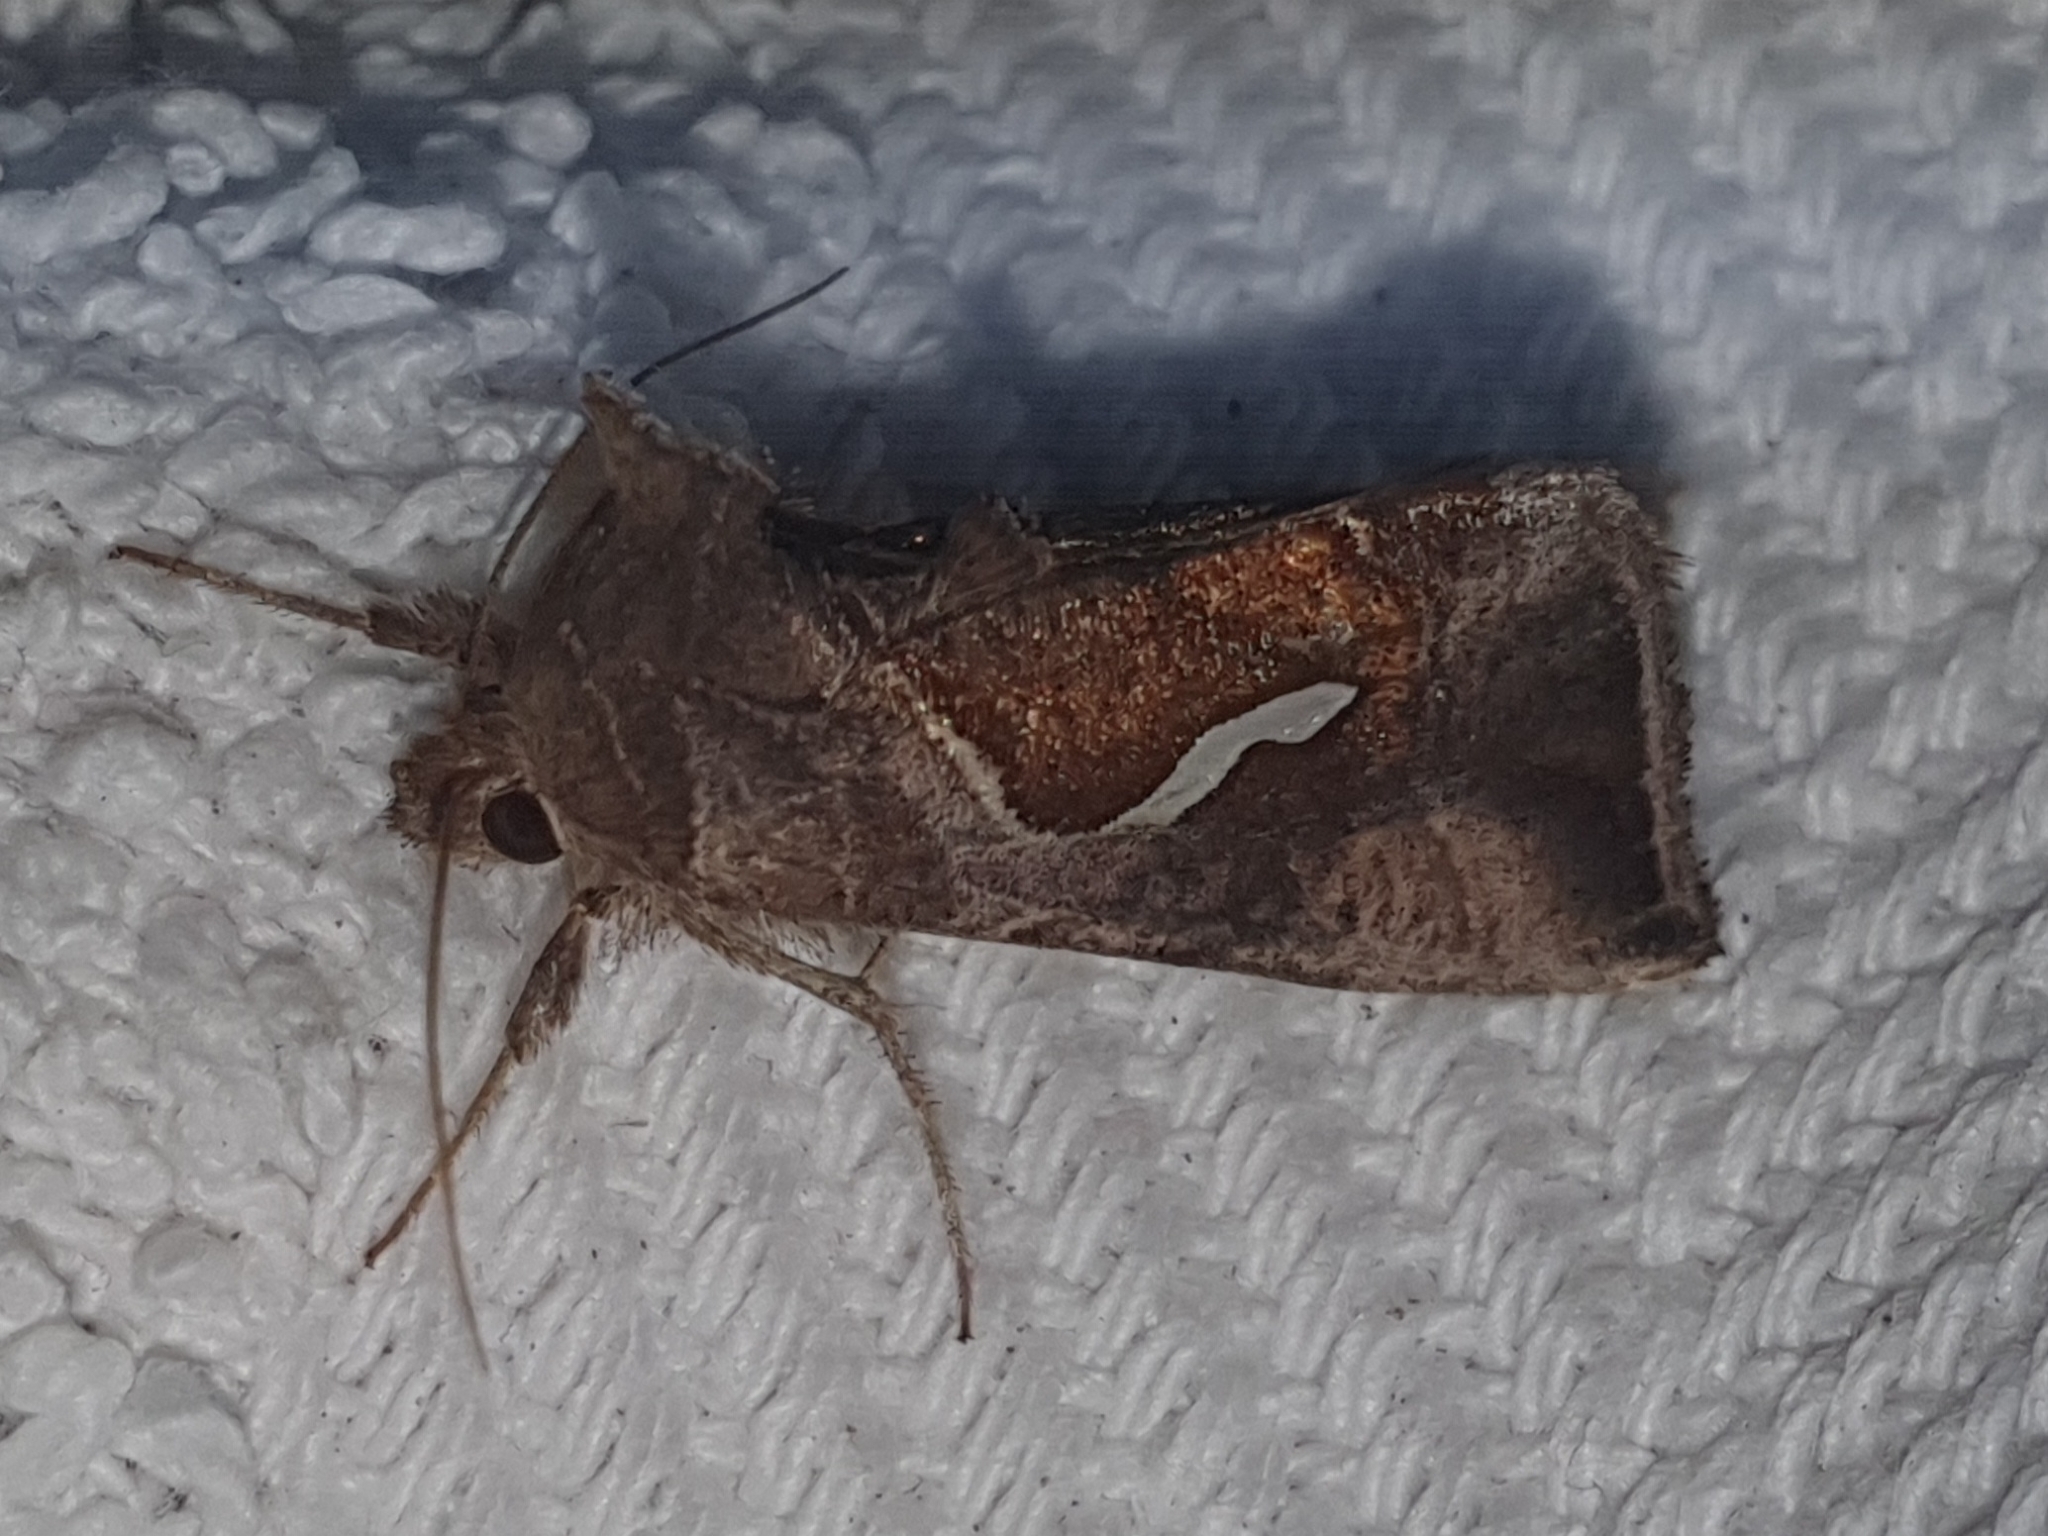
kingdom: Animalia
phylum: Arthropoda
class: Insecta
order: Lepidoptera
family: Noctuidae
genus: Macdunnoughia
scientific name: Macdunnoughia confusa
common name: Dewick's plusia
